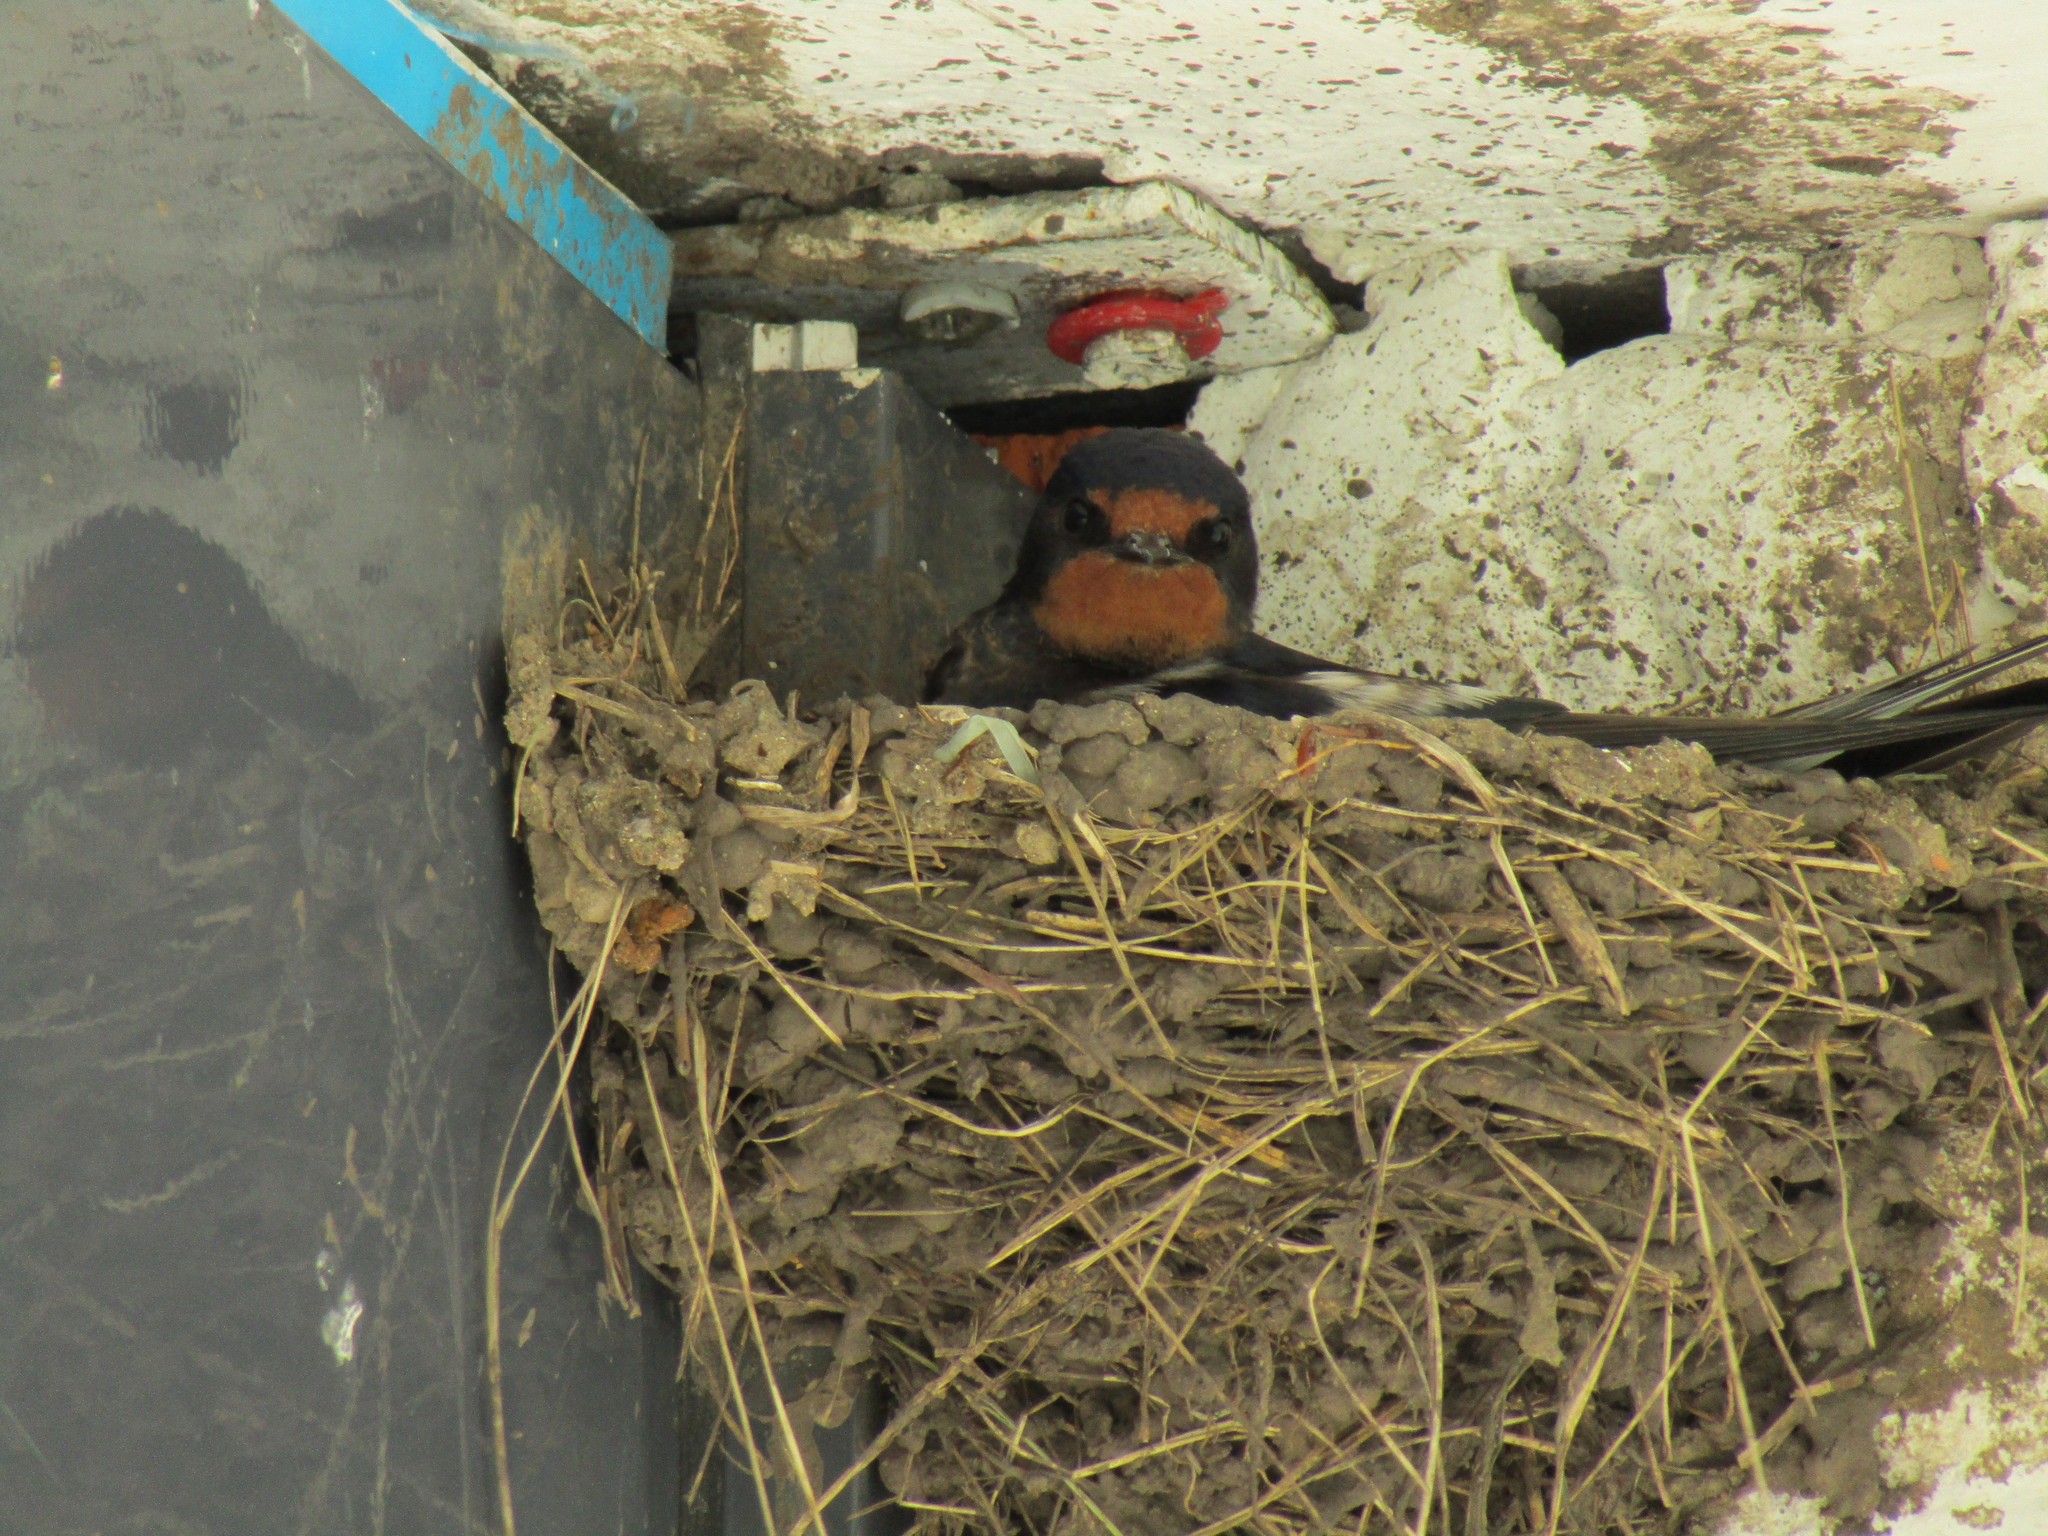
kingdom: Animalia
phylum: Chordata
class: Aves
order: Passeriformes
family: Hirundinidae
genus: Hirundo
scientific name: Hirundo rustica
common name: Barn swallow
